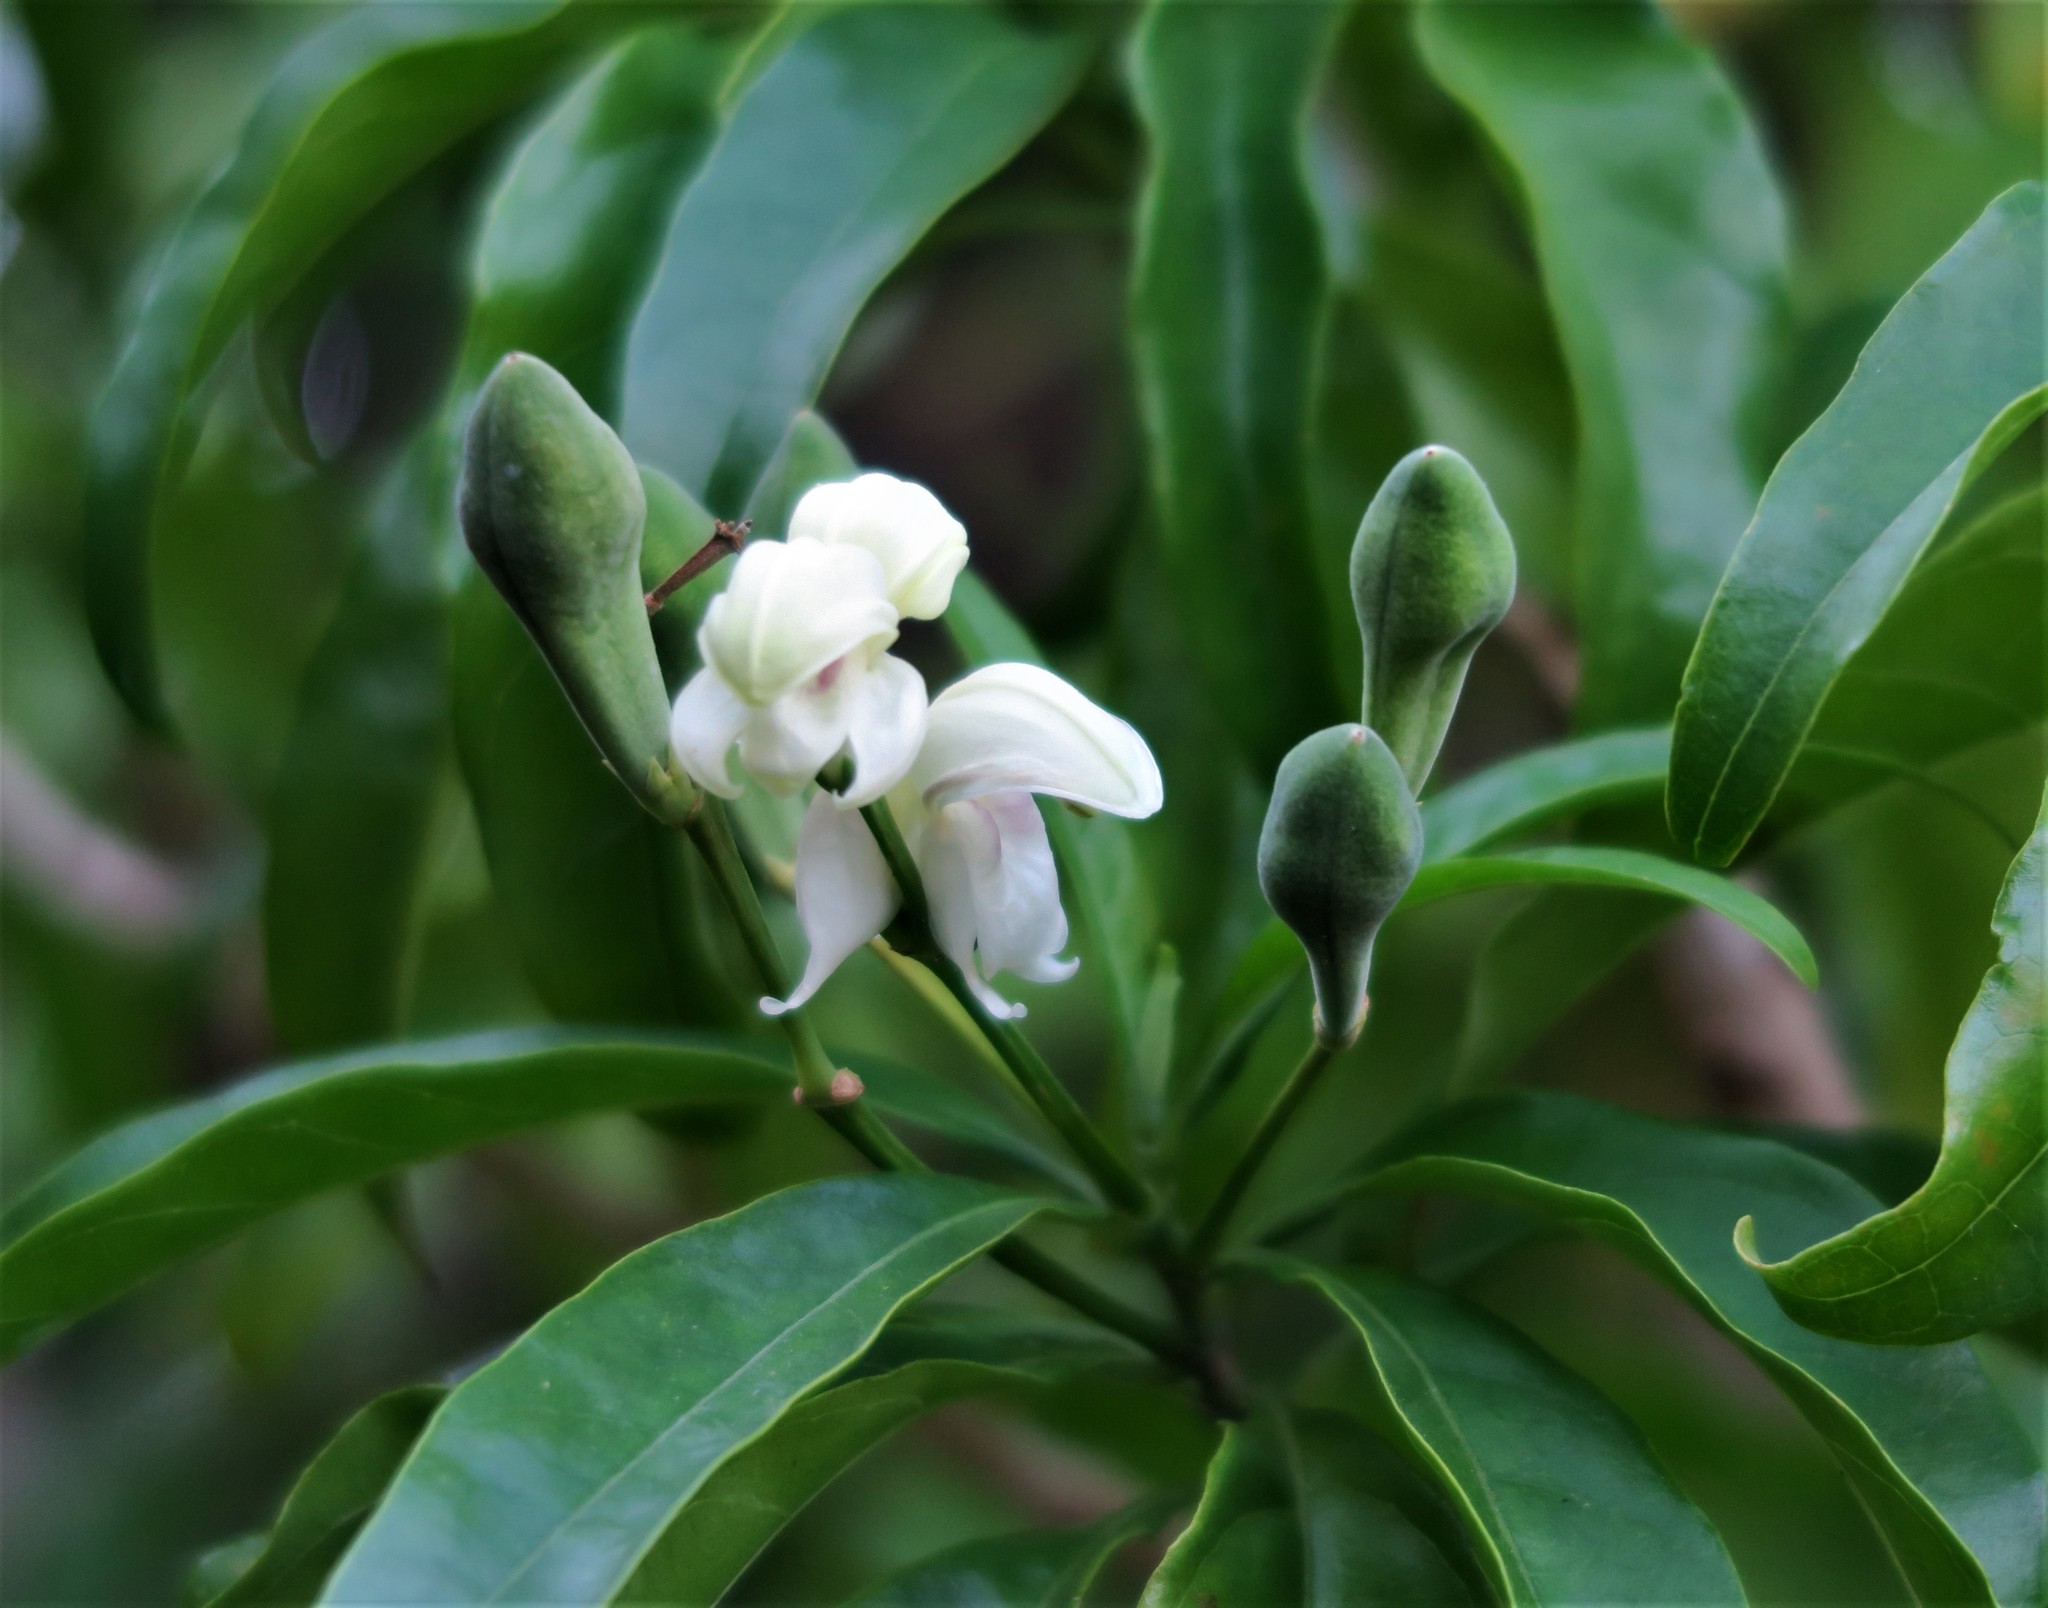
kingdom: Plantae
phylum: Tracheophyta
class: Magnoliopsida
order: Lamiales
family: Acanthaceae
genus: Justicia
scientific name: Justicia adhatodoides
